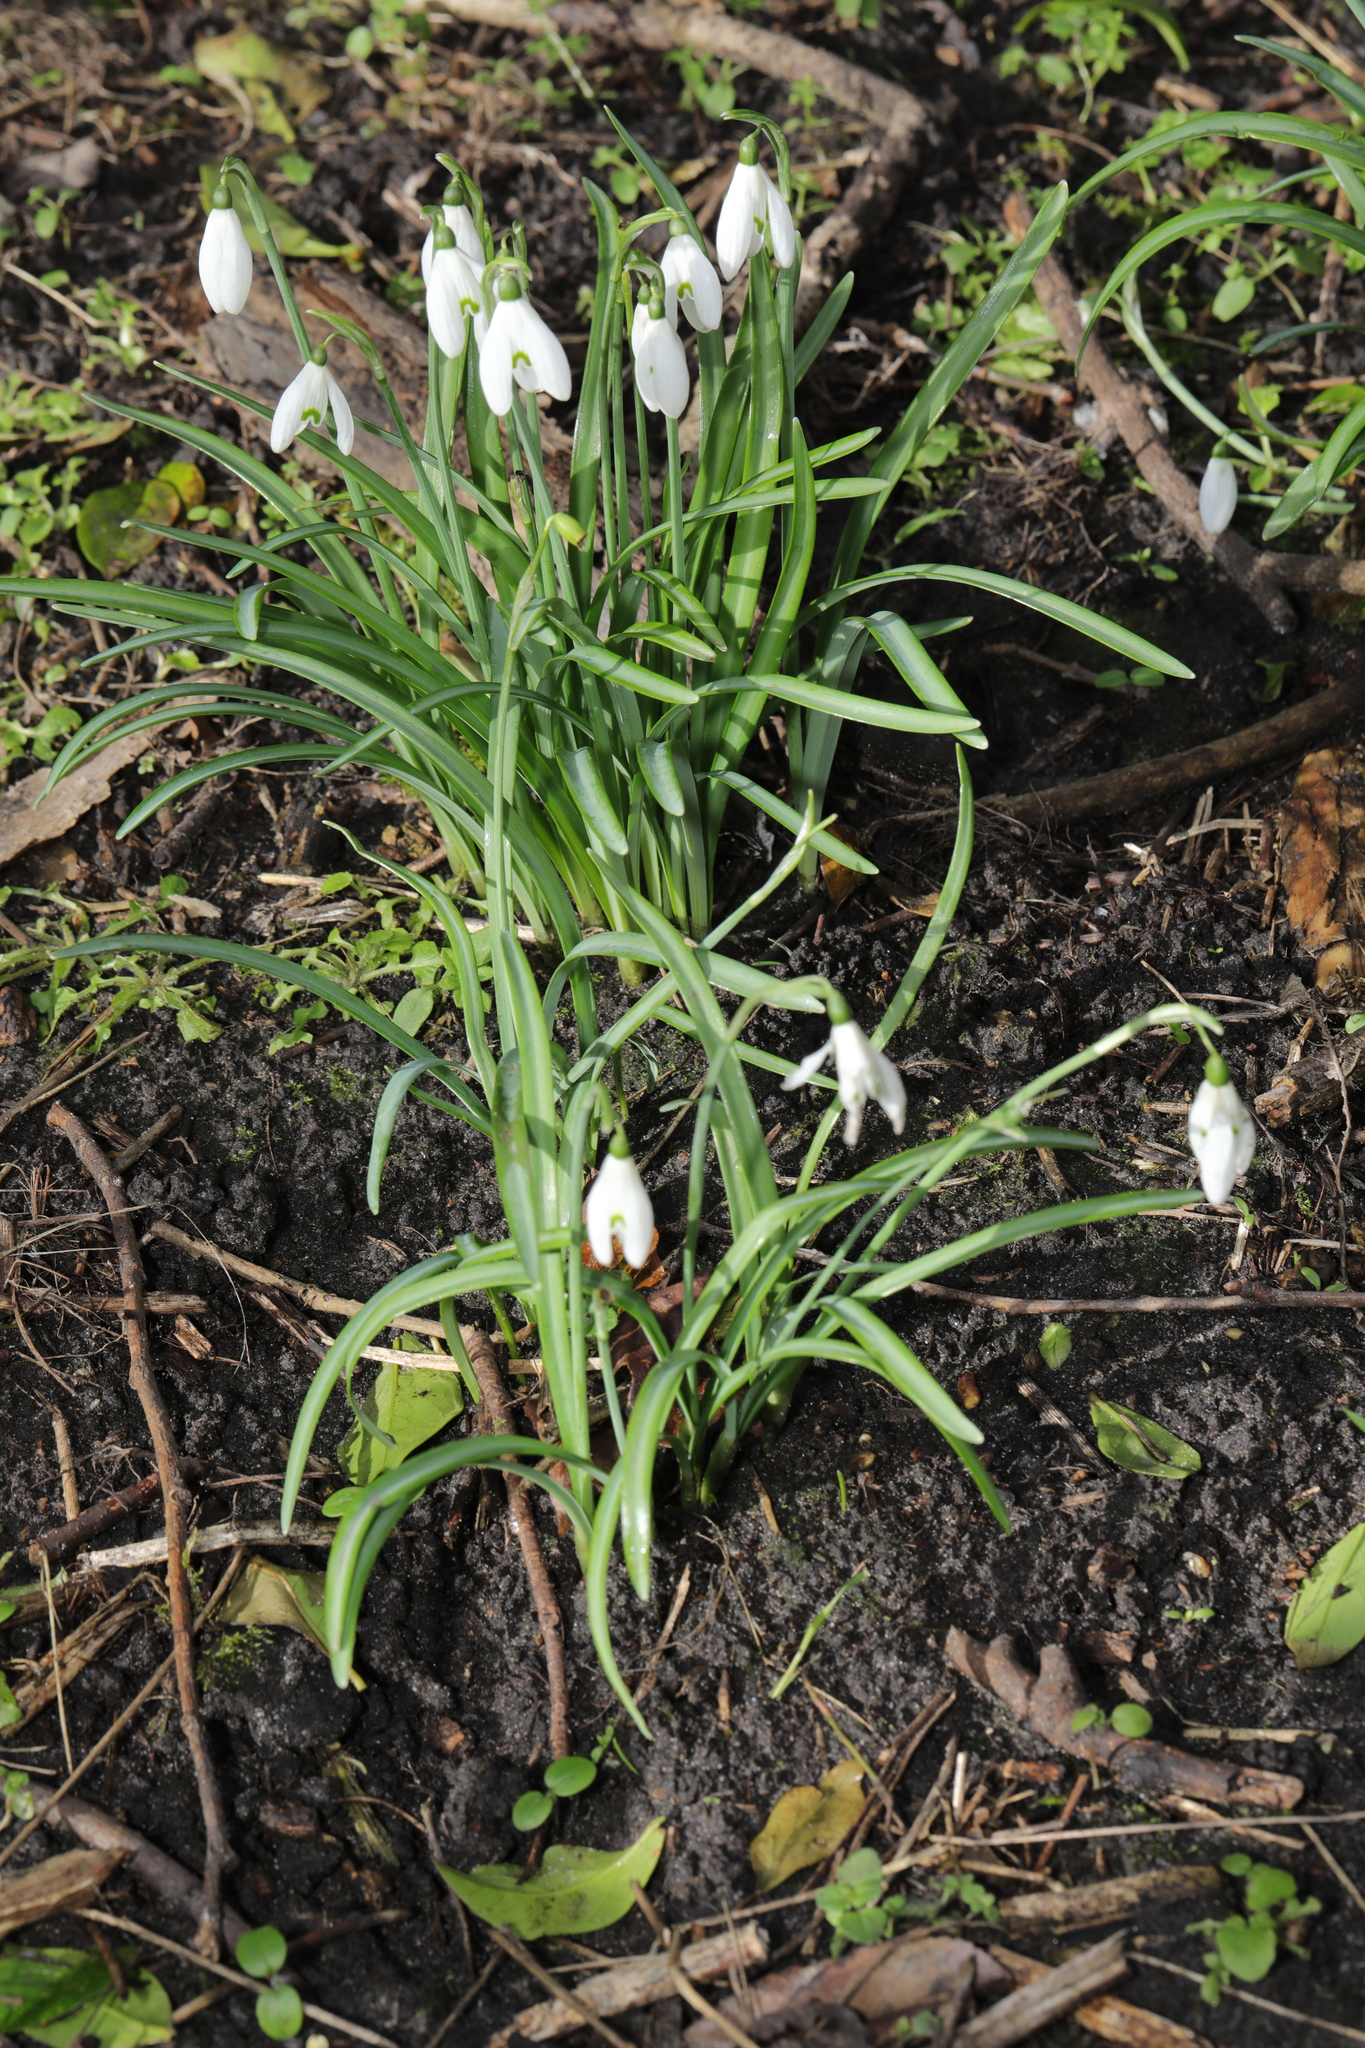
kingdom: Plantae
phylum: Tracheophyta
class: Liliopsida
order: Asparagales
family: Amaryllidaceae
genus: Galanthus
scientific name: Galanthus nivalis
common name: Snowdrop
